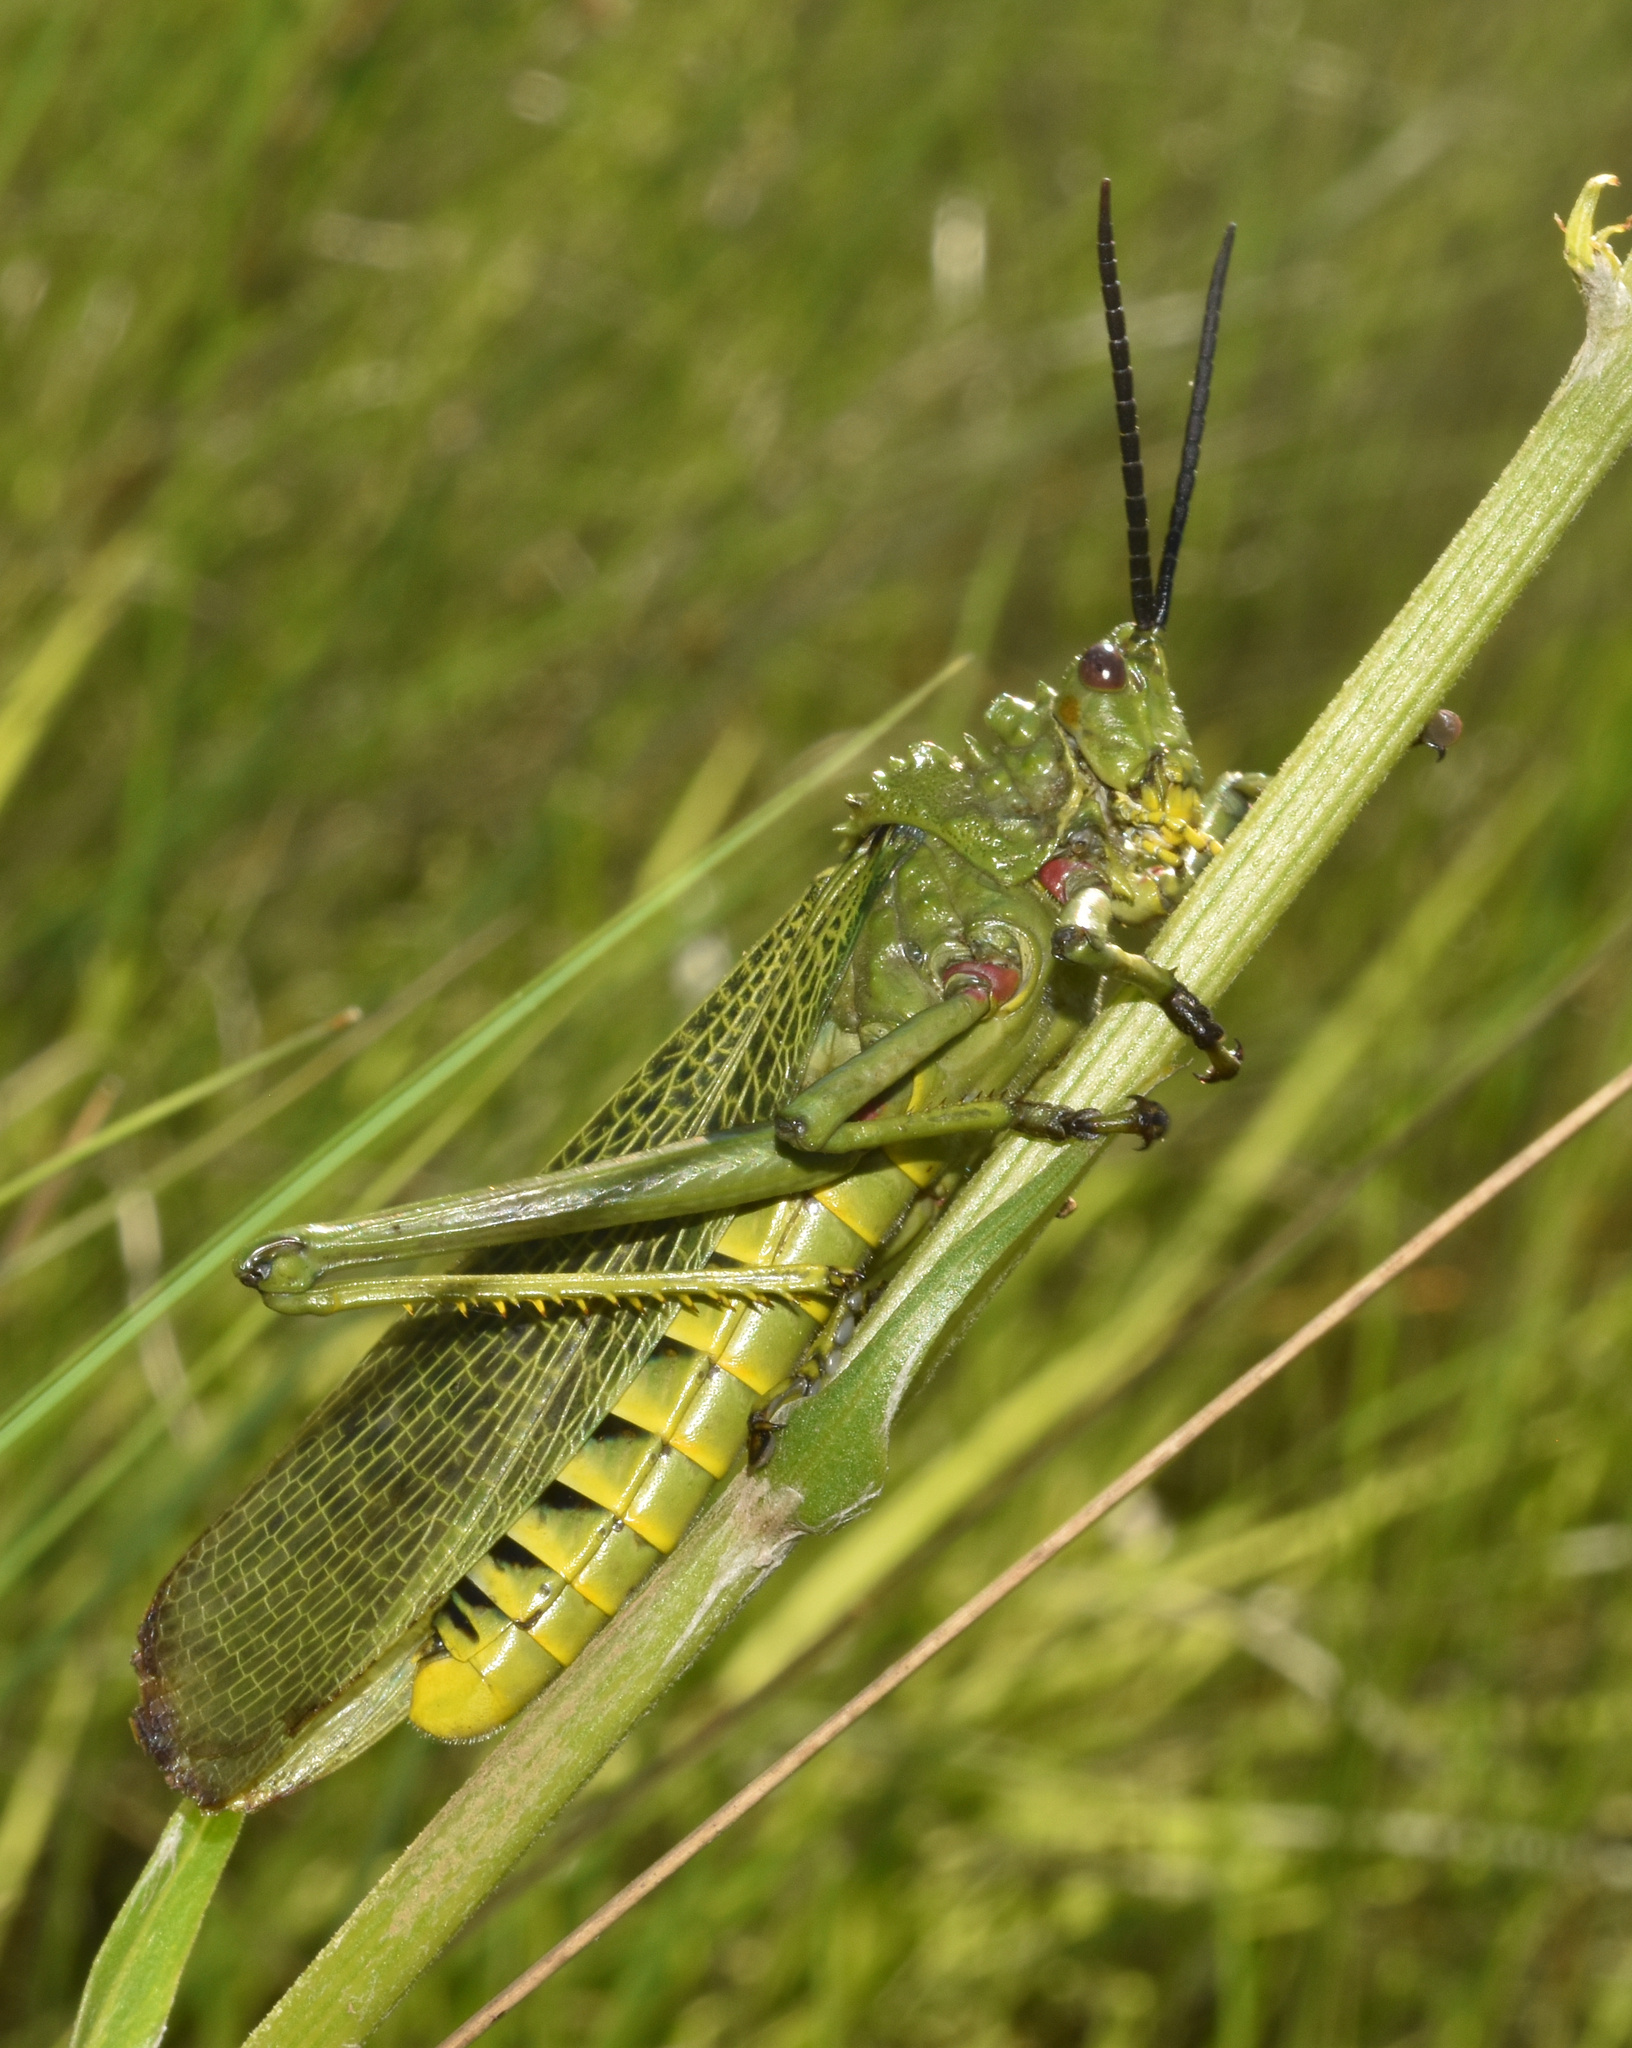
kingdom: Animalia
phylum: Arthropoda
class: Insecta
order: Orthoptera
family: Pyrgomorphidae
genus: Phymateus
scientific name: Phymateus viridipes
